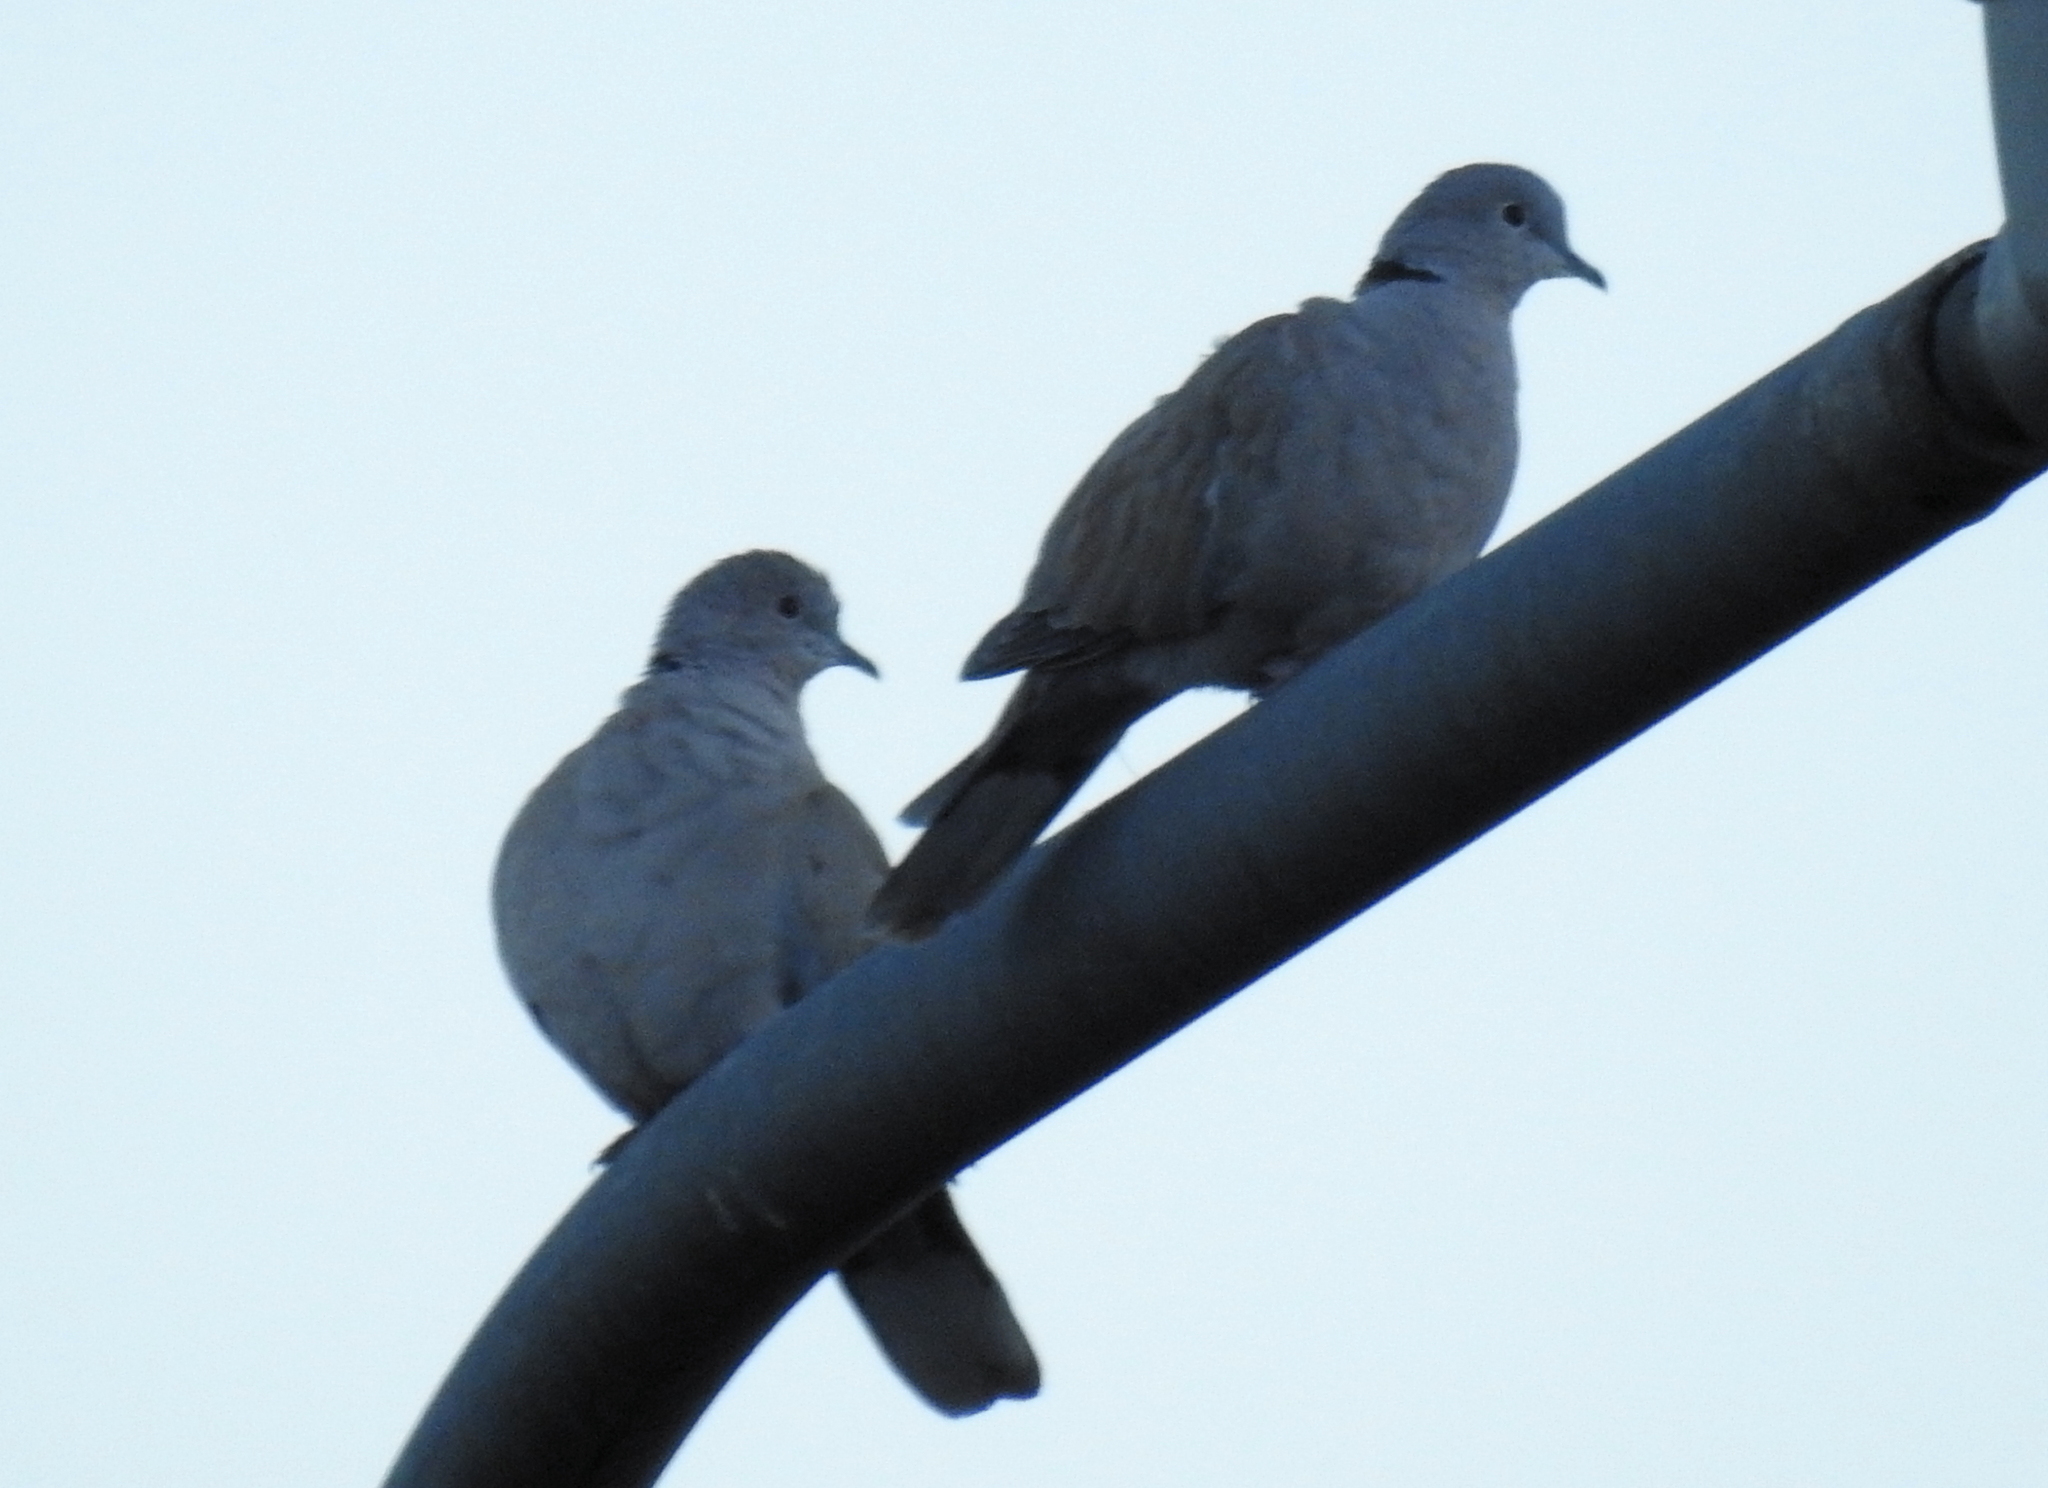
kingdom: Animalia
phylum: Chordata
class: Aves
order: Columbiformes
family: Columbidae
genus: Streptopelia
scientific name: Streptopelia decaocto
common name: Eurasian collared dove
